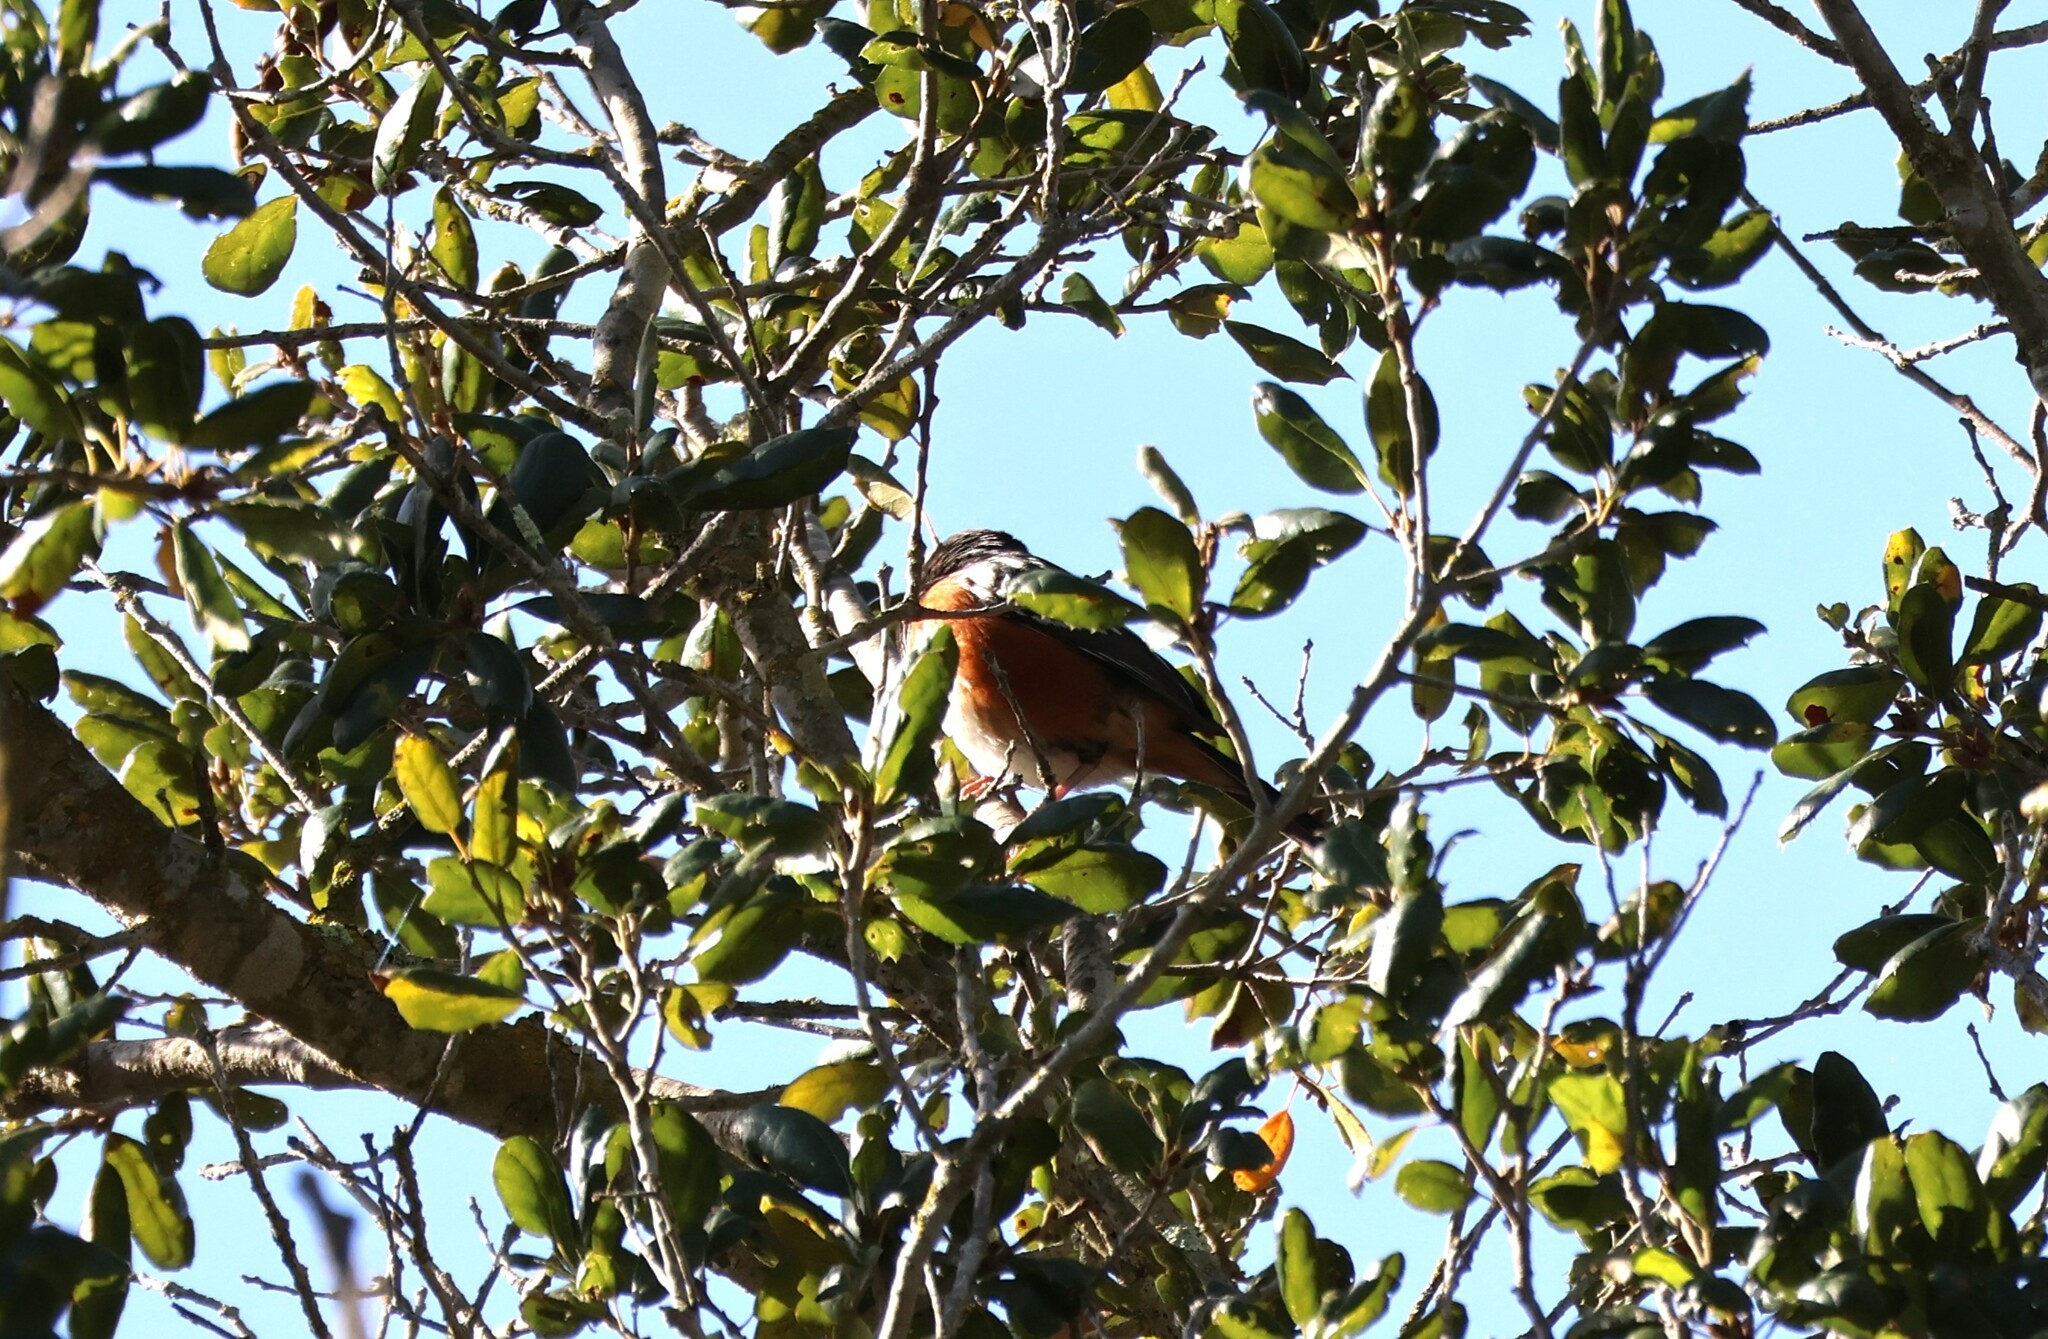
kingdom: Animalia
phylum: Chordata
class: Aves
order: Passeriformes
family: Passerellidae
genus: Pipilo
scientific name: Pipilo maculatus
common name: Spotted towhee
